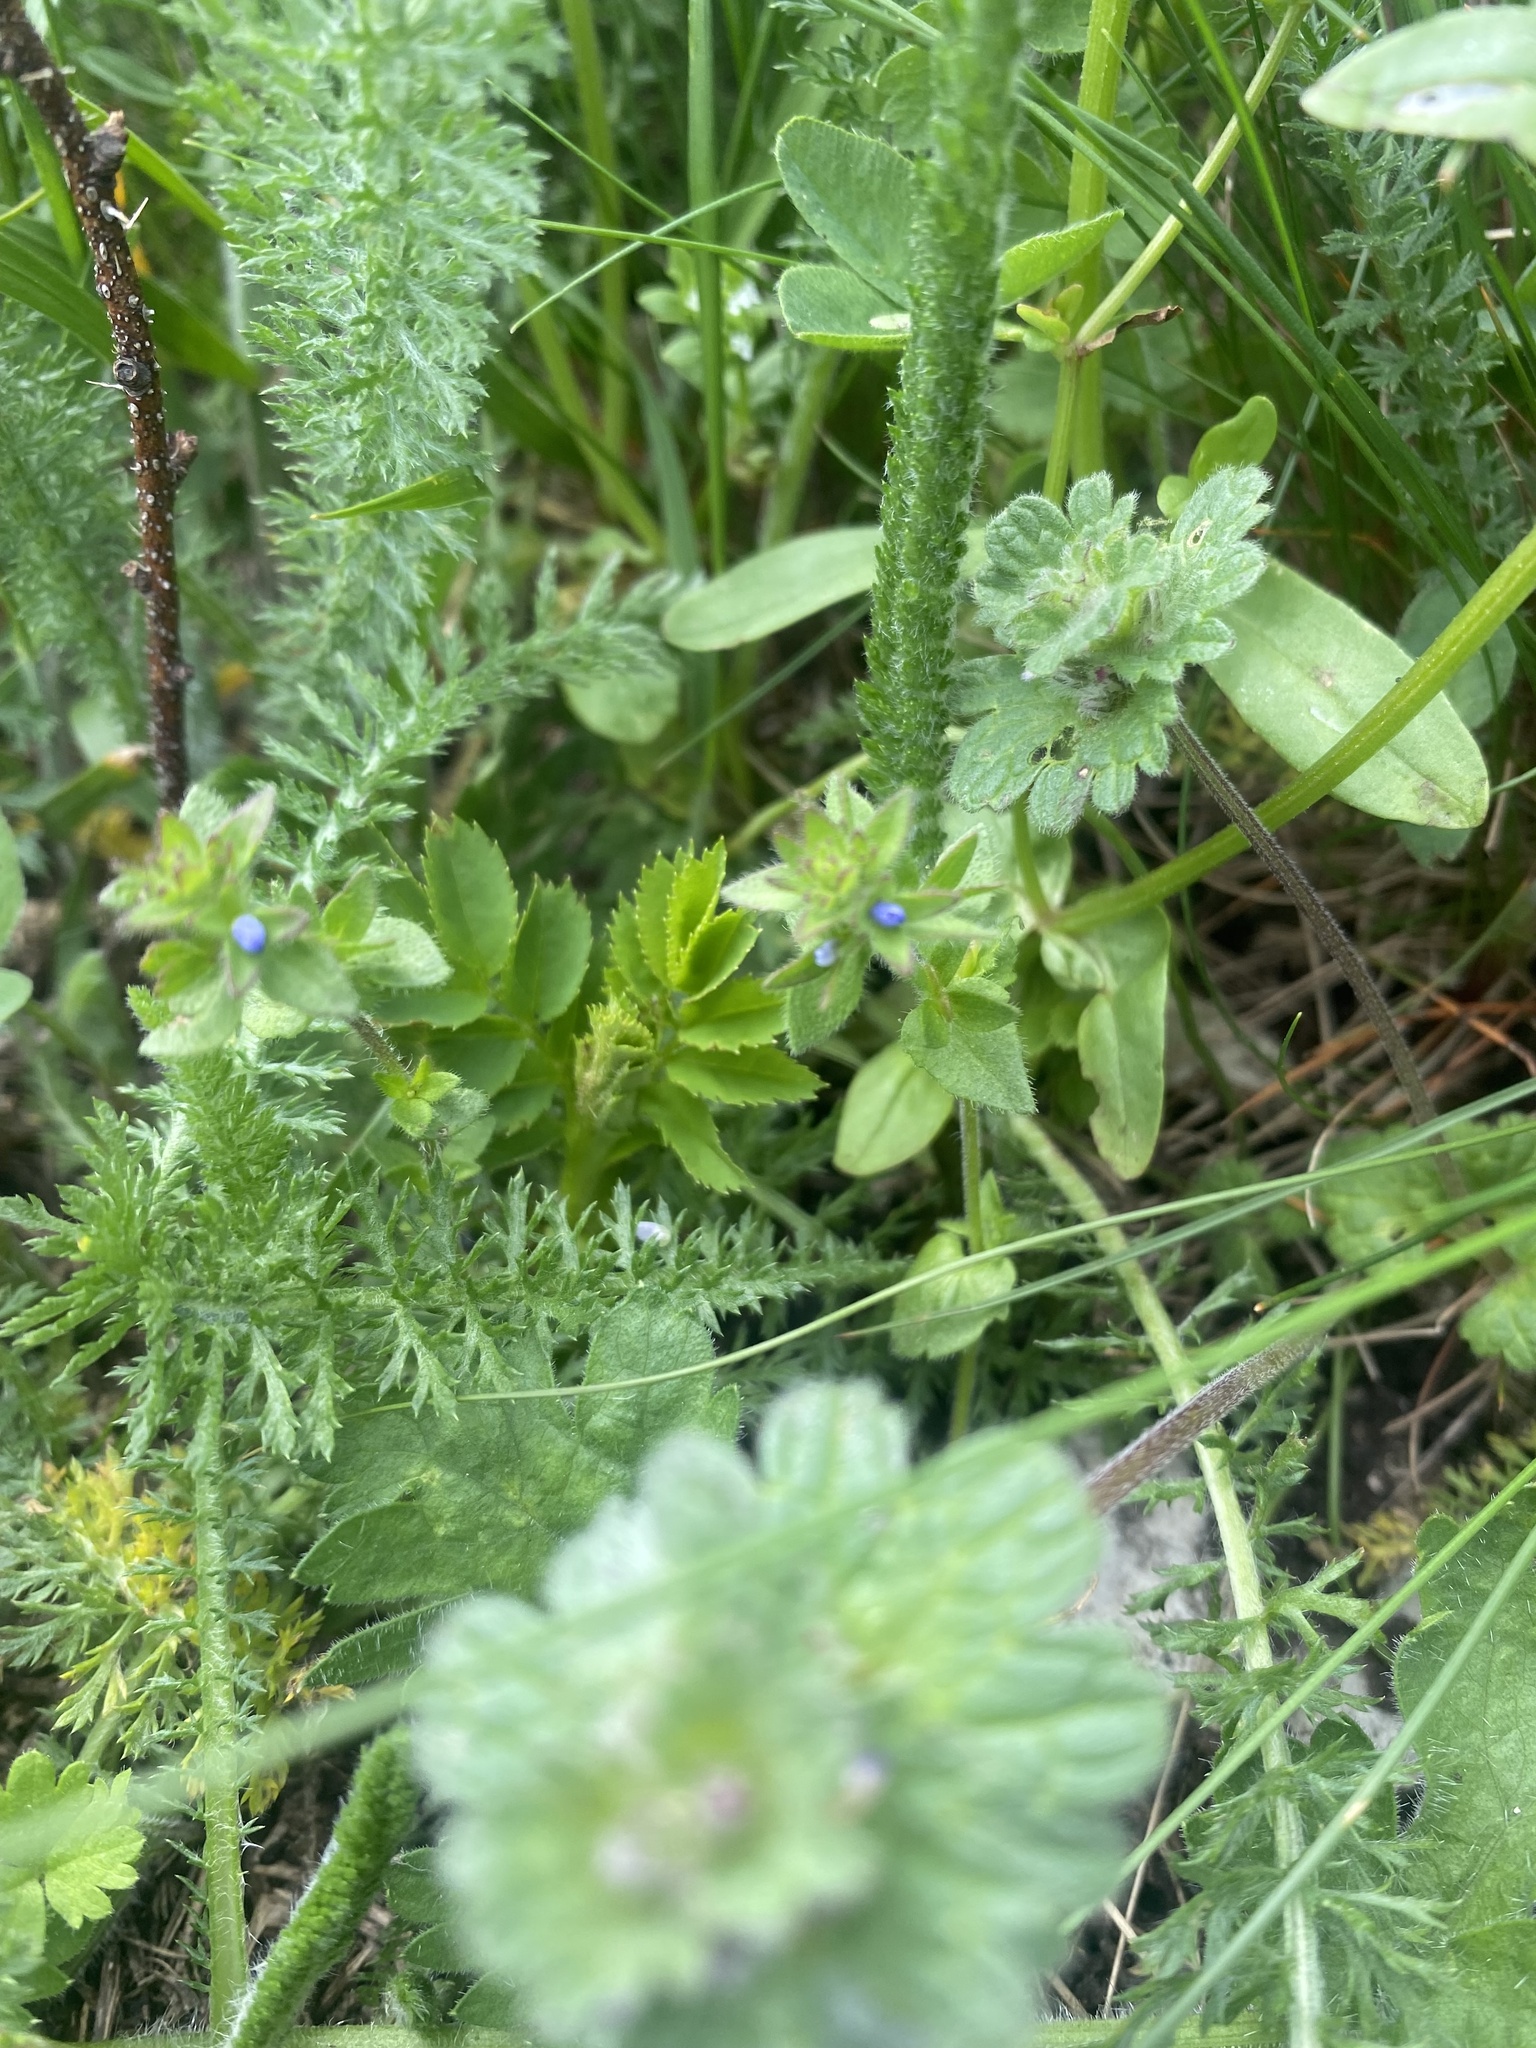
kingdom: Plantae
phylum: Tracheophyta
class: Magnoliopsida
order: Lamiales
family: Plantaginaceae
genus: Veronica
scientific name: Veronica arvensis
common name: Corn speedwell
